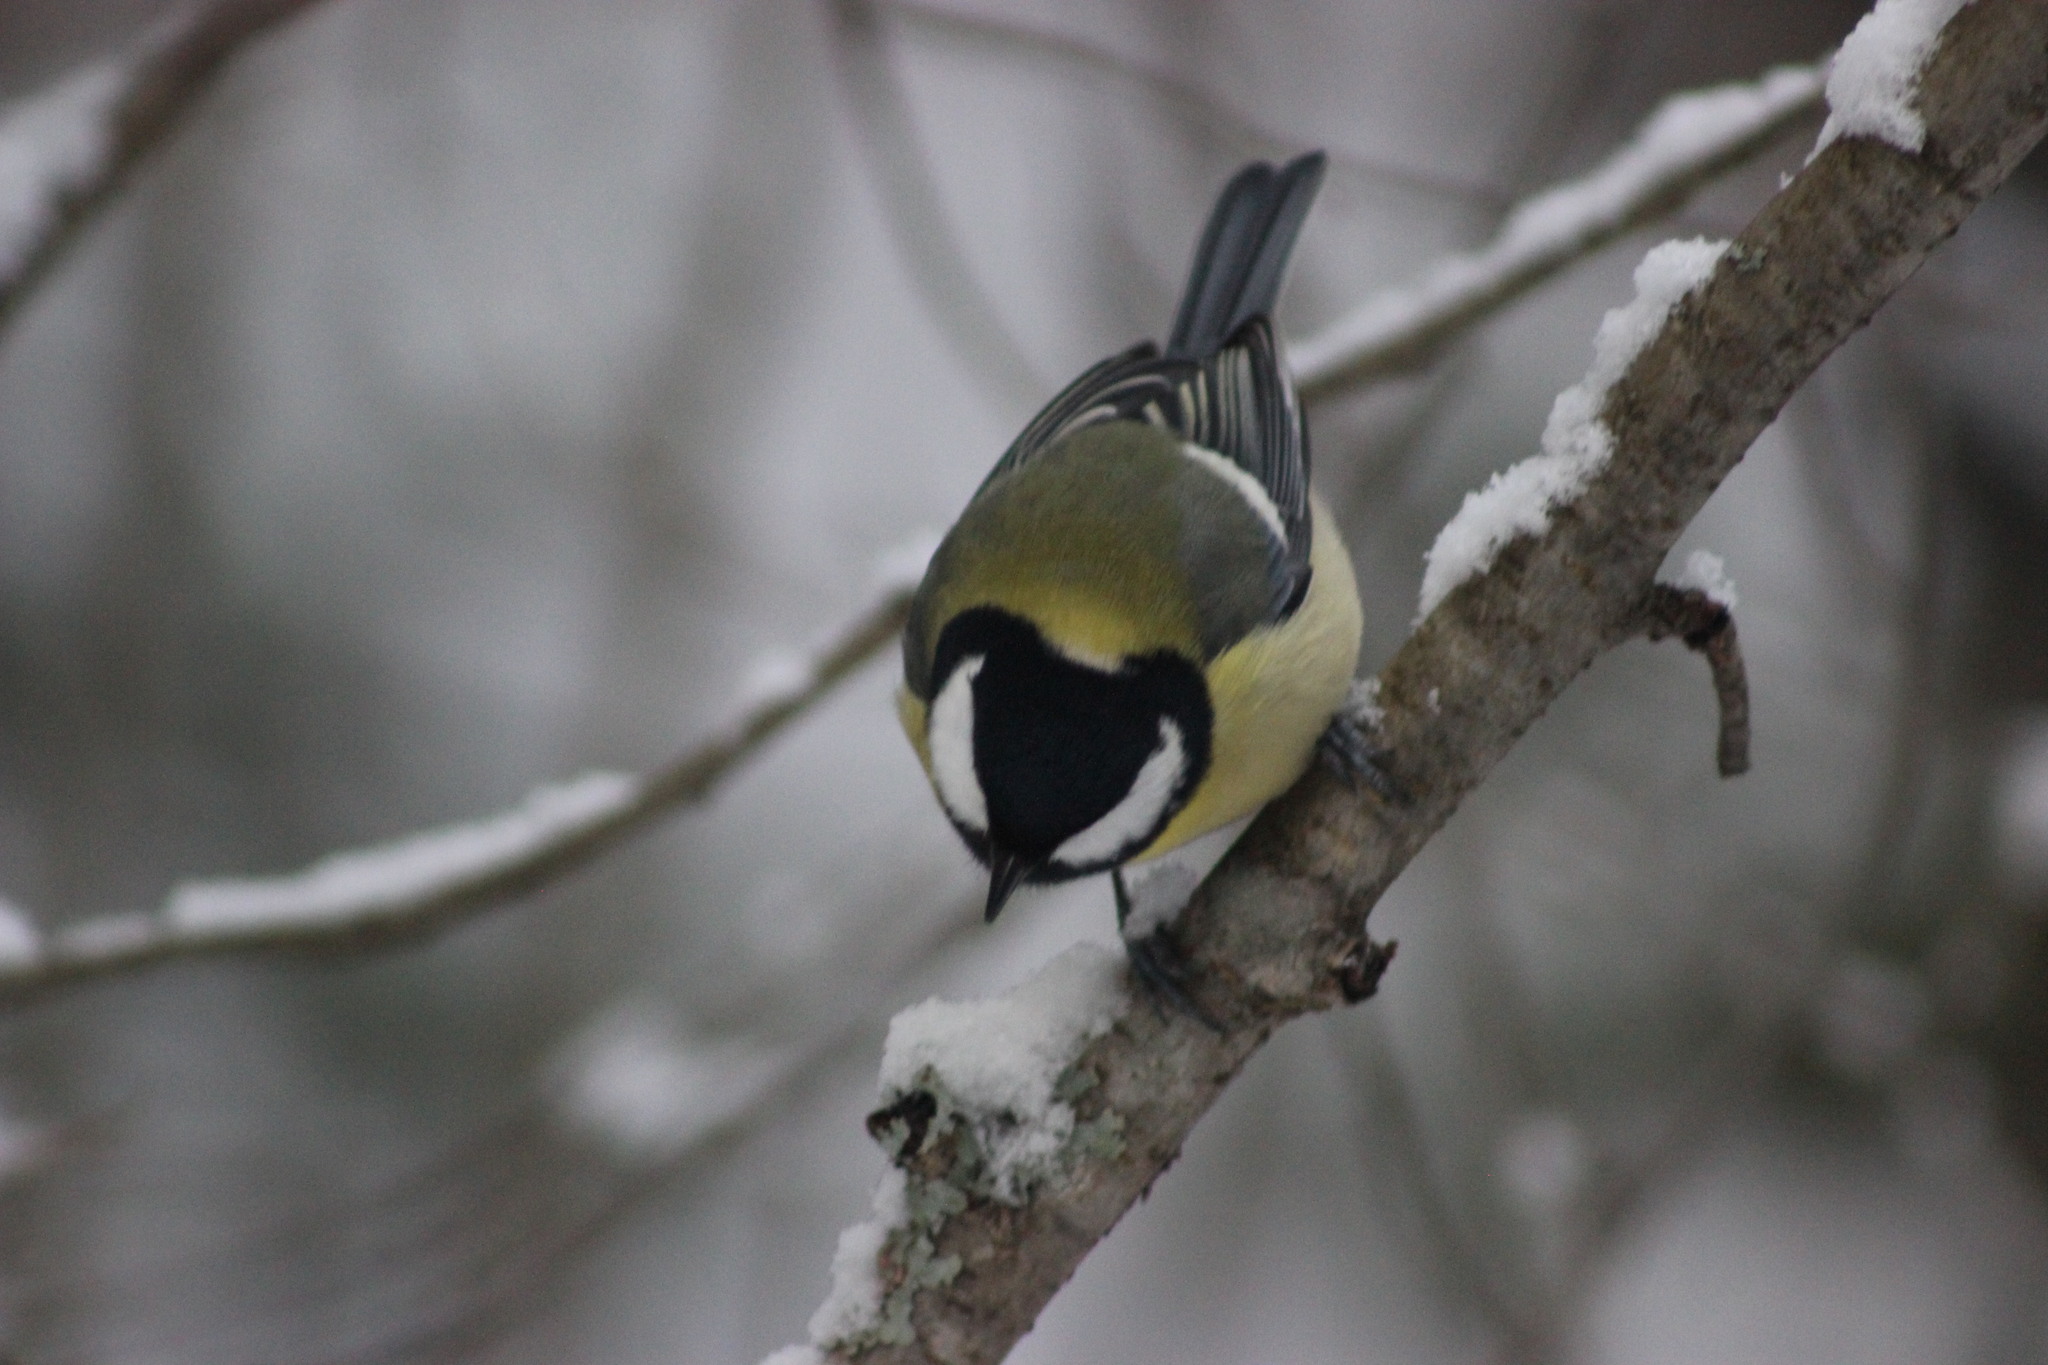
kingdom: Animalia
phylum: Chordata
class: Aves
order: Passeriformes
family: Paridae
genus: Parus
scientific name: Parus major
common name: Great tit
